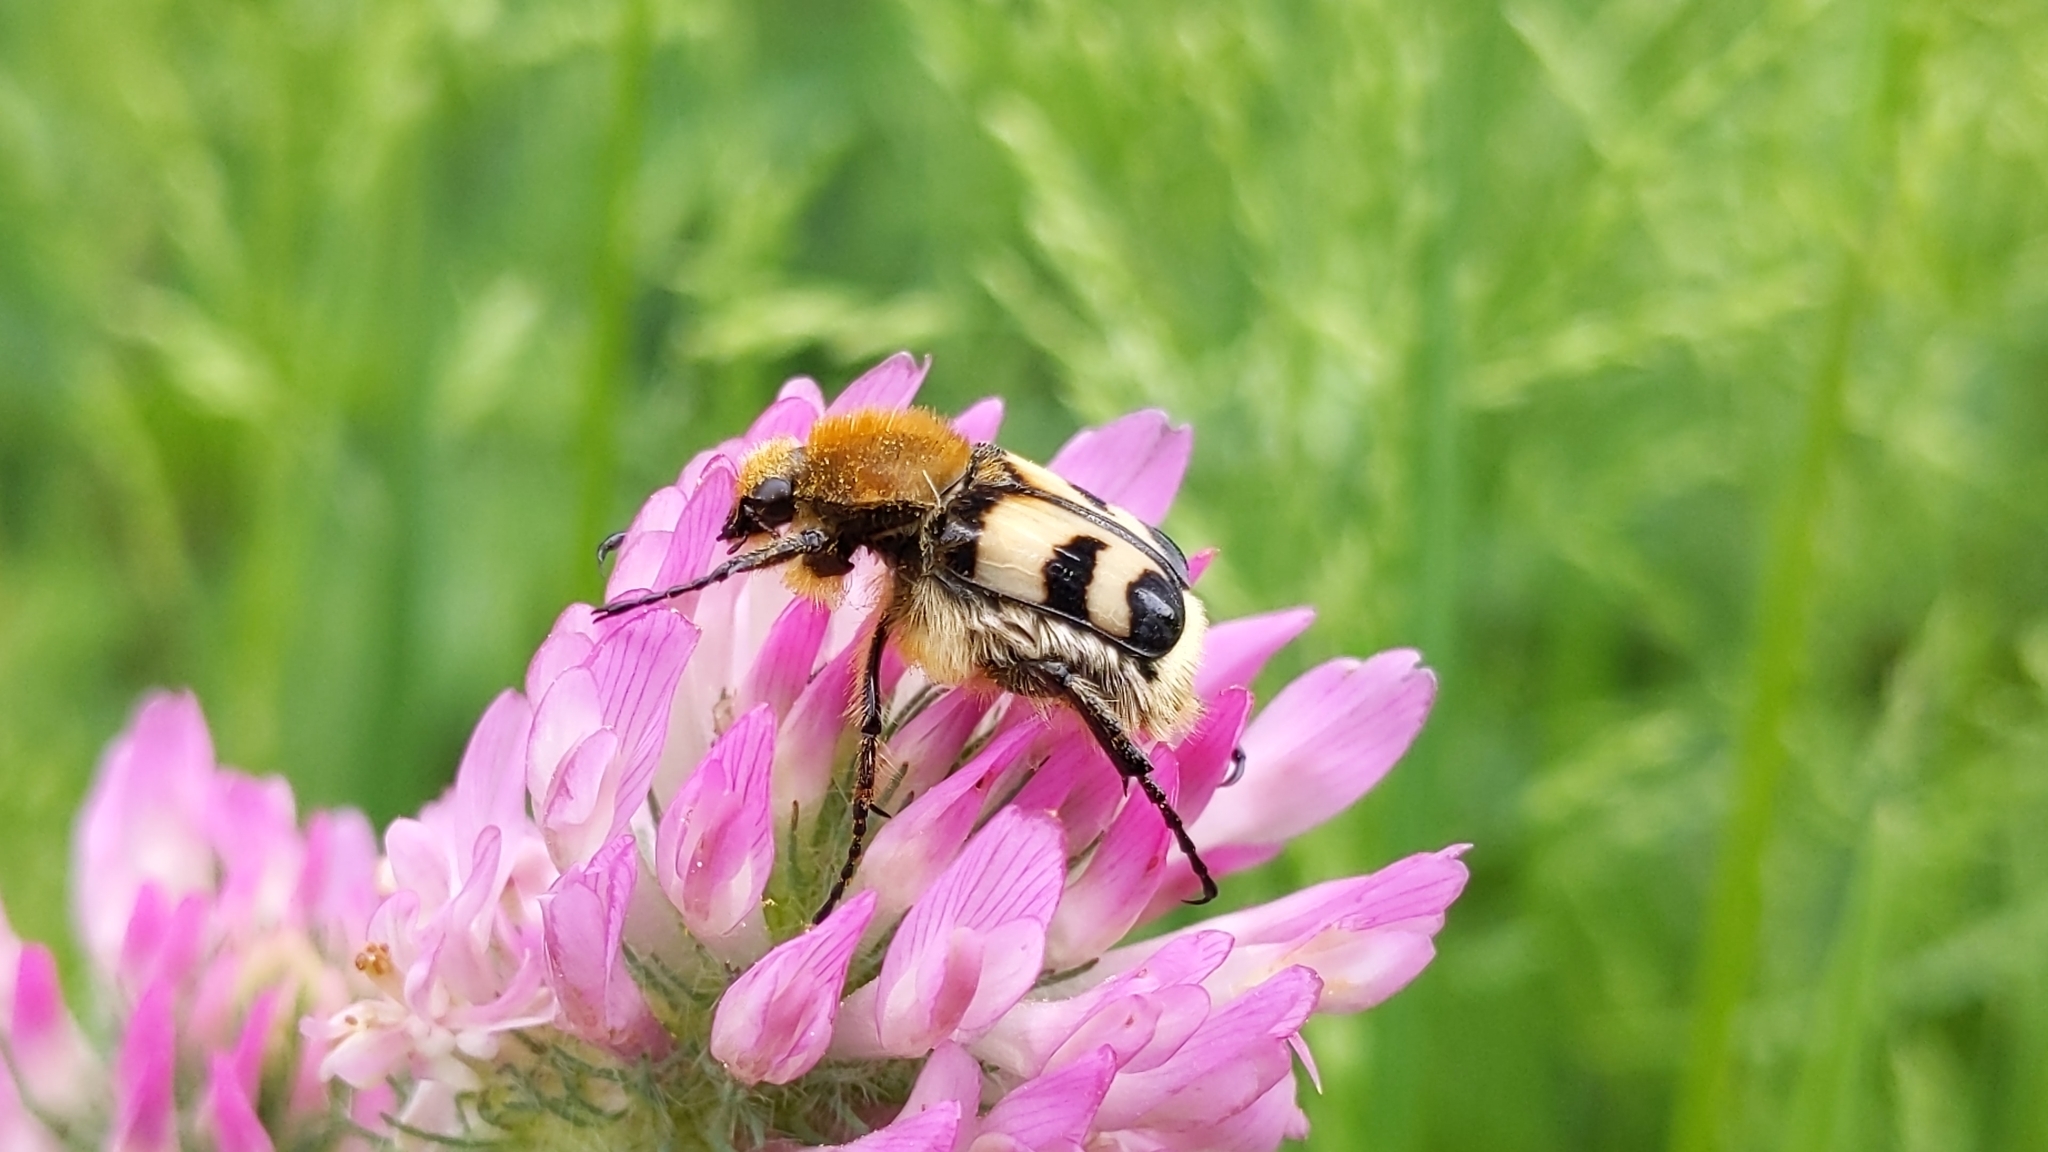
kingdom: Animalia
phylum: Arthropoda
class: Insecta
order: Coleoptera
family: Scarabaeidae
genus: Trichius
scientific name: Trichius fasciatus
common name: Bee beetle
